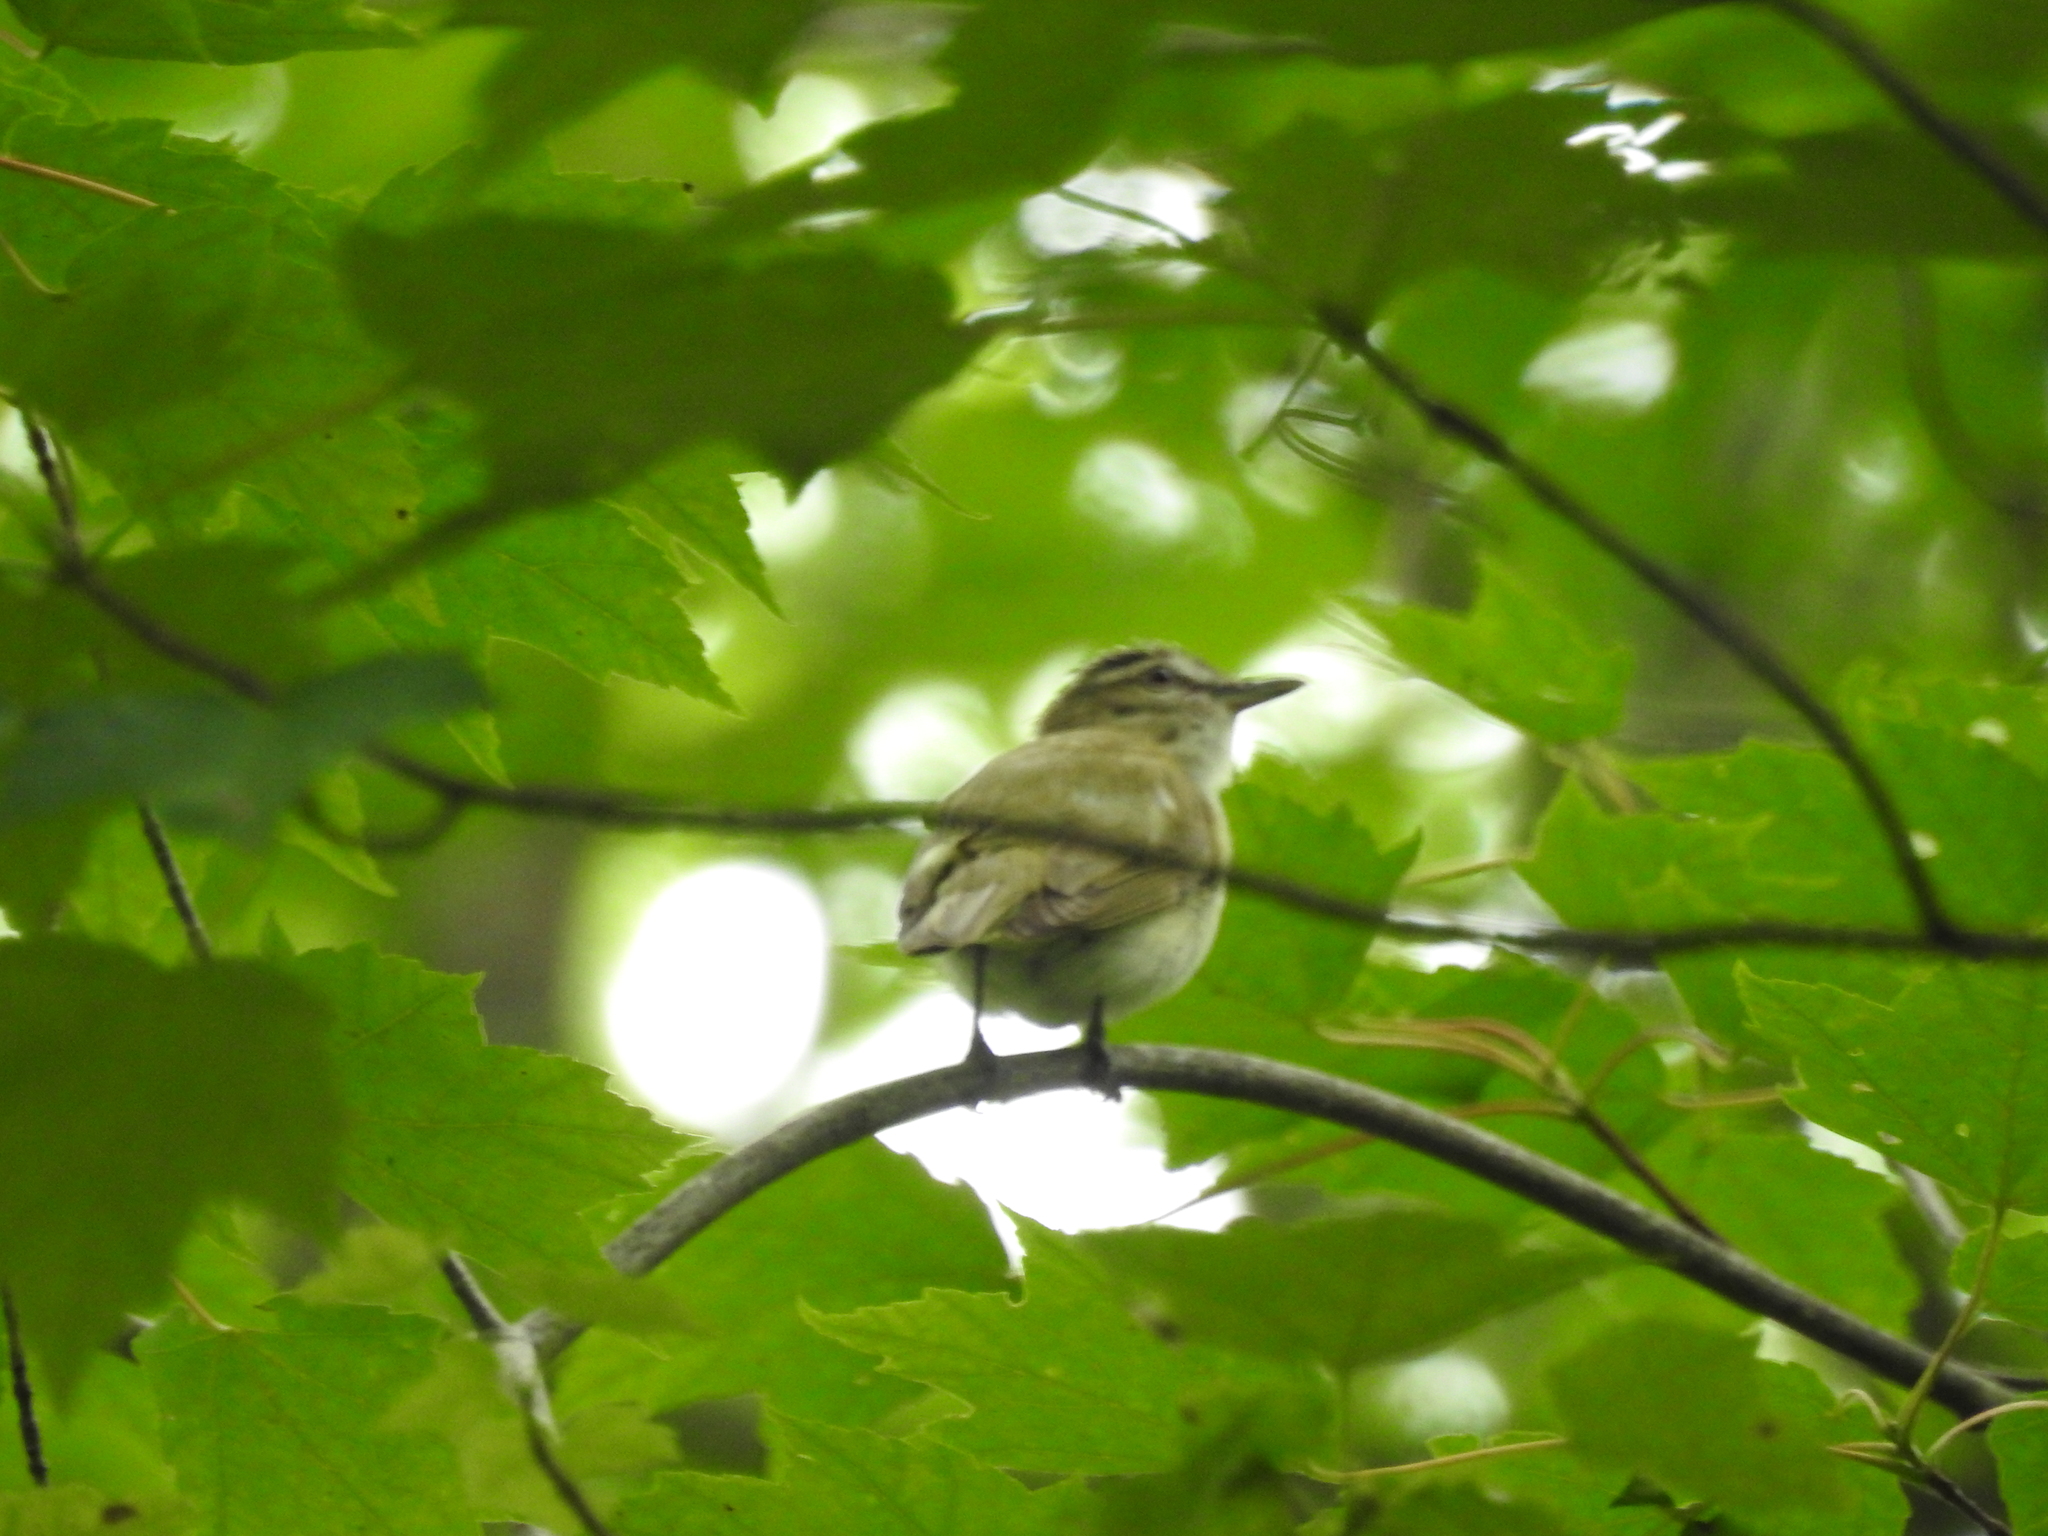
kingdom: Animalia
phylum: Chordata
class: Aves
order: Passeriformes
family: Vireonidae
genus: Vireo
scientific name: Vireo olivaceus
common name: Red-eyed vireo
